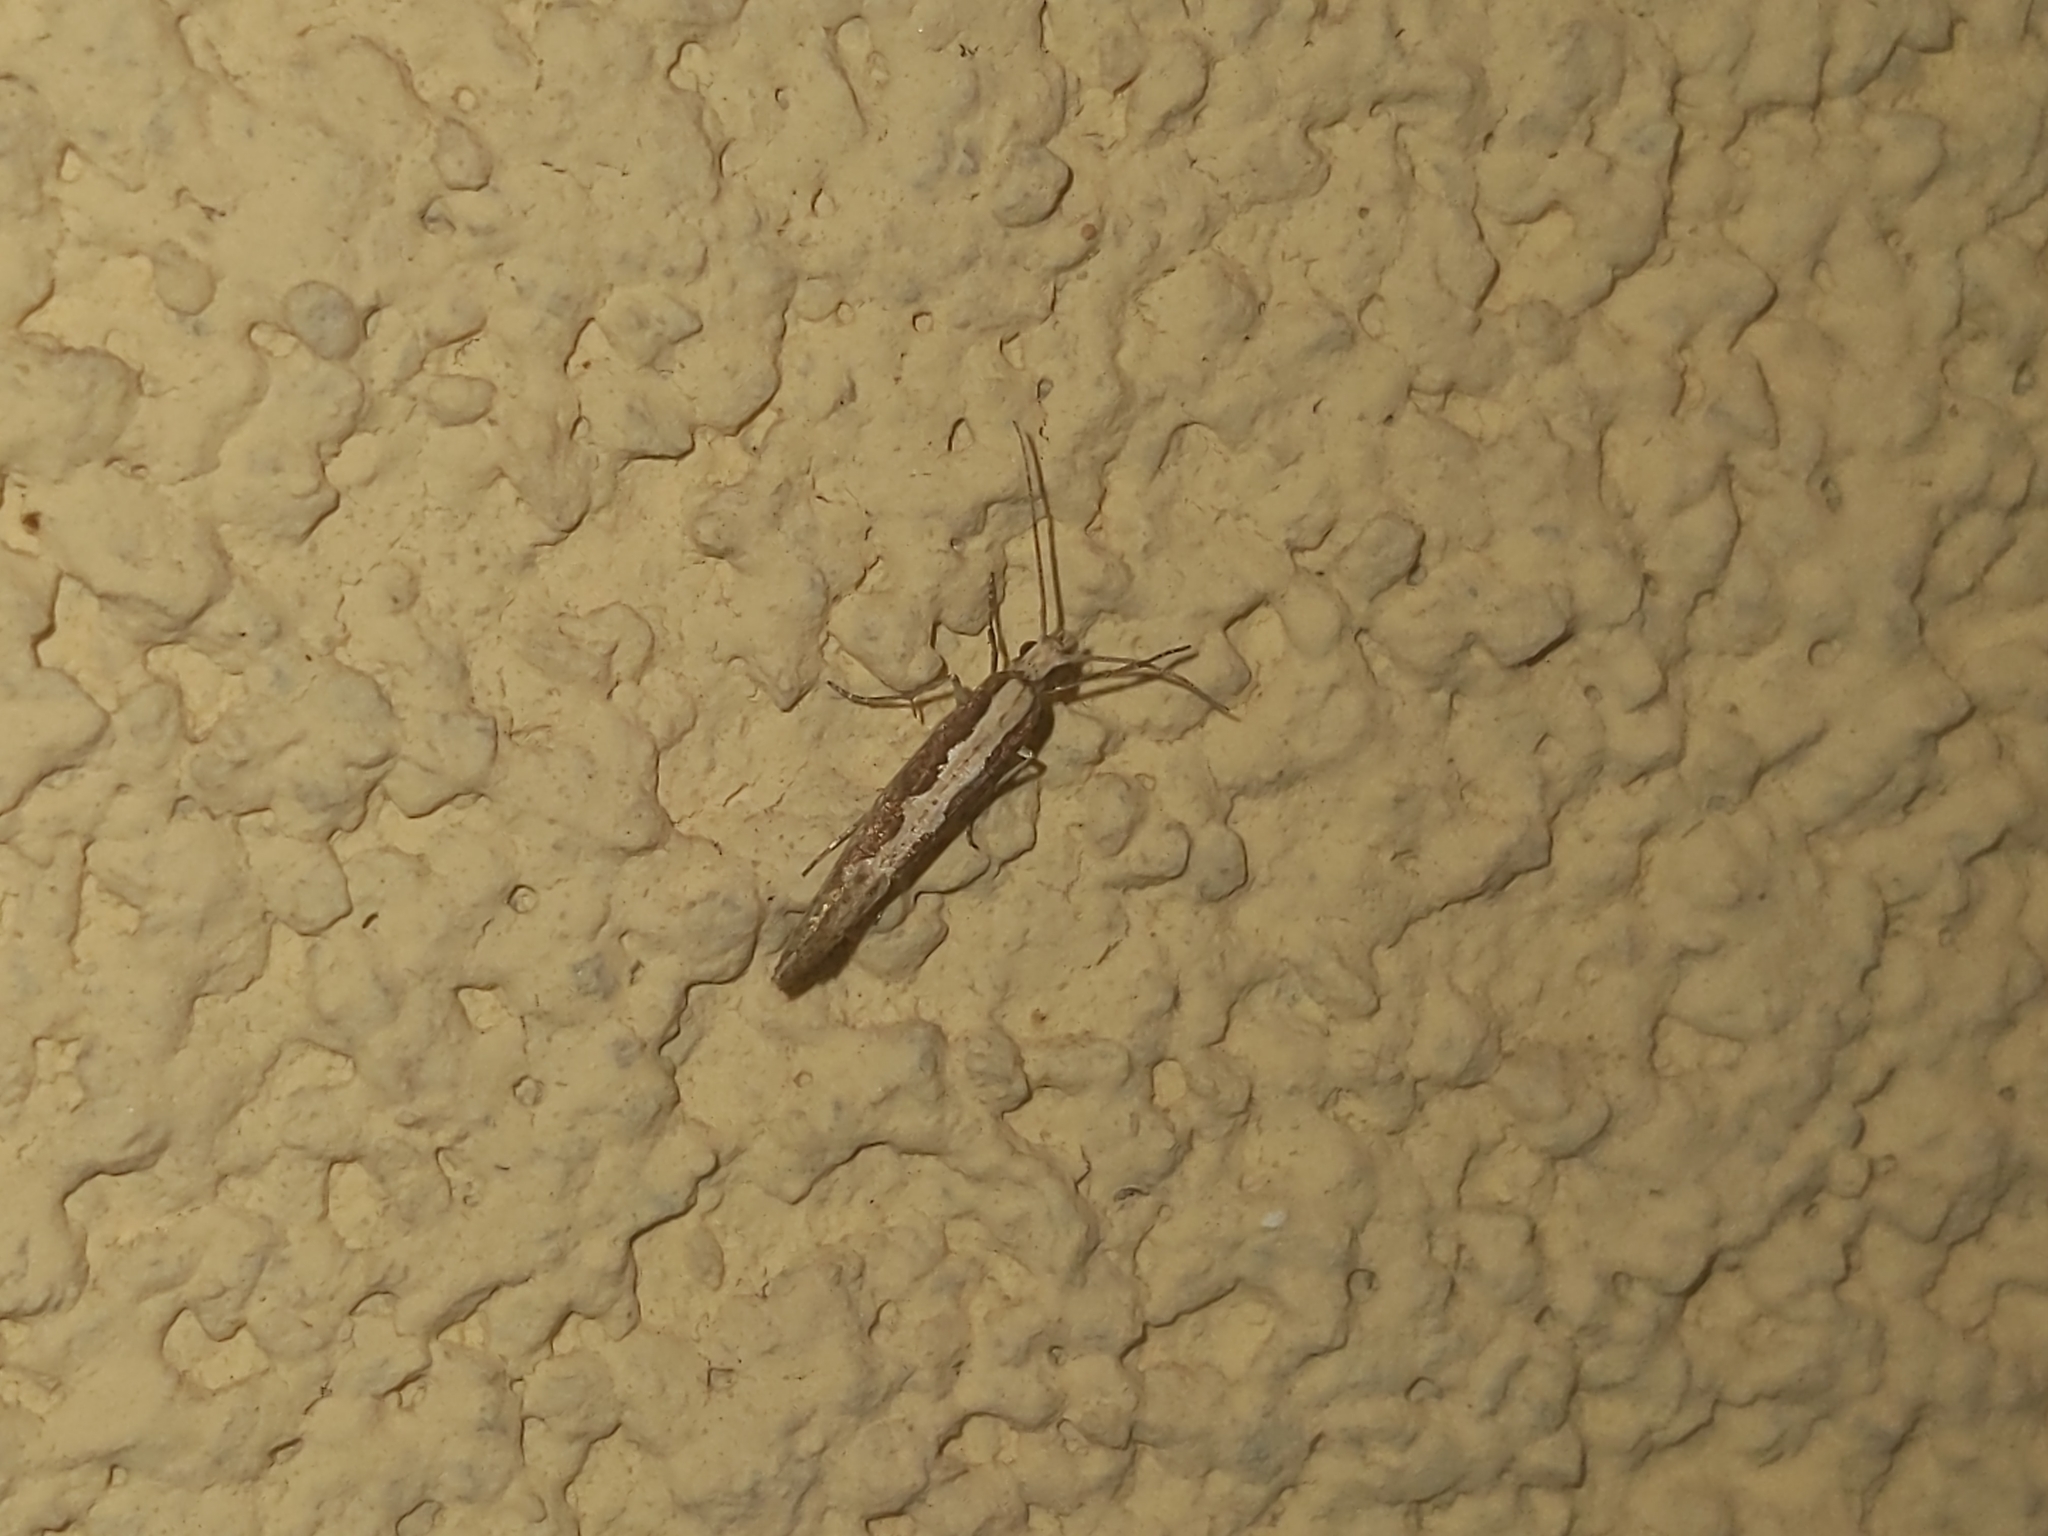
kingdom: Animalia
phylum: Arthropoda
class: Insecta
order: Lepidoptera
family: Plutellidae
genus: Plutella
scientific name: Plutella xylostella
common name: Diamond-back moth
